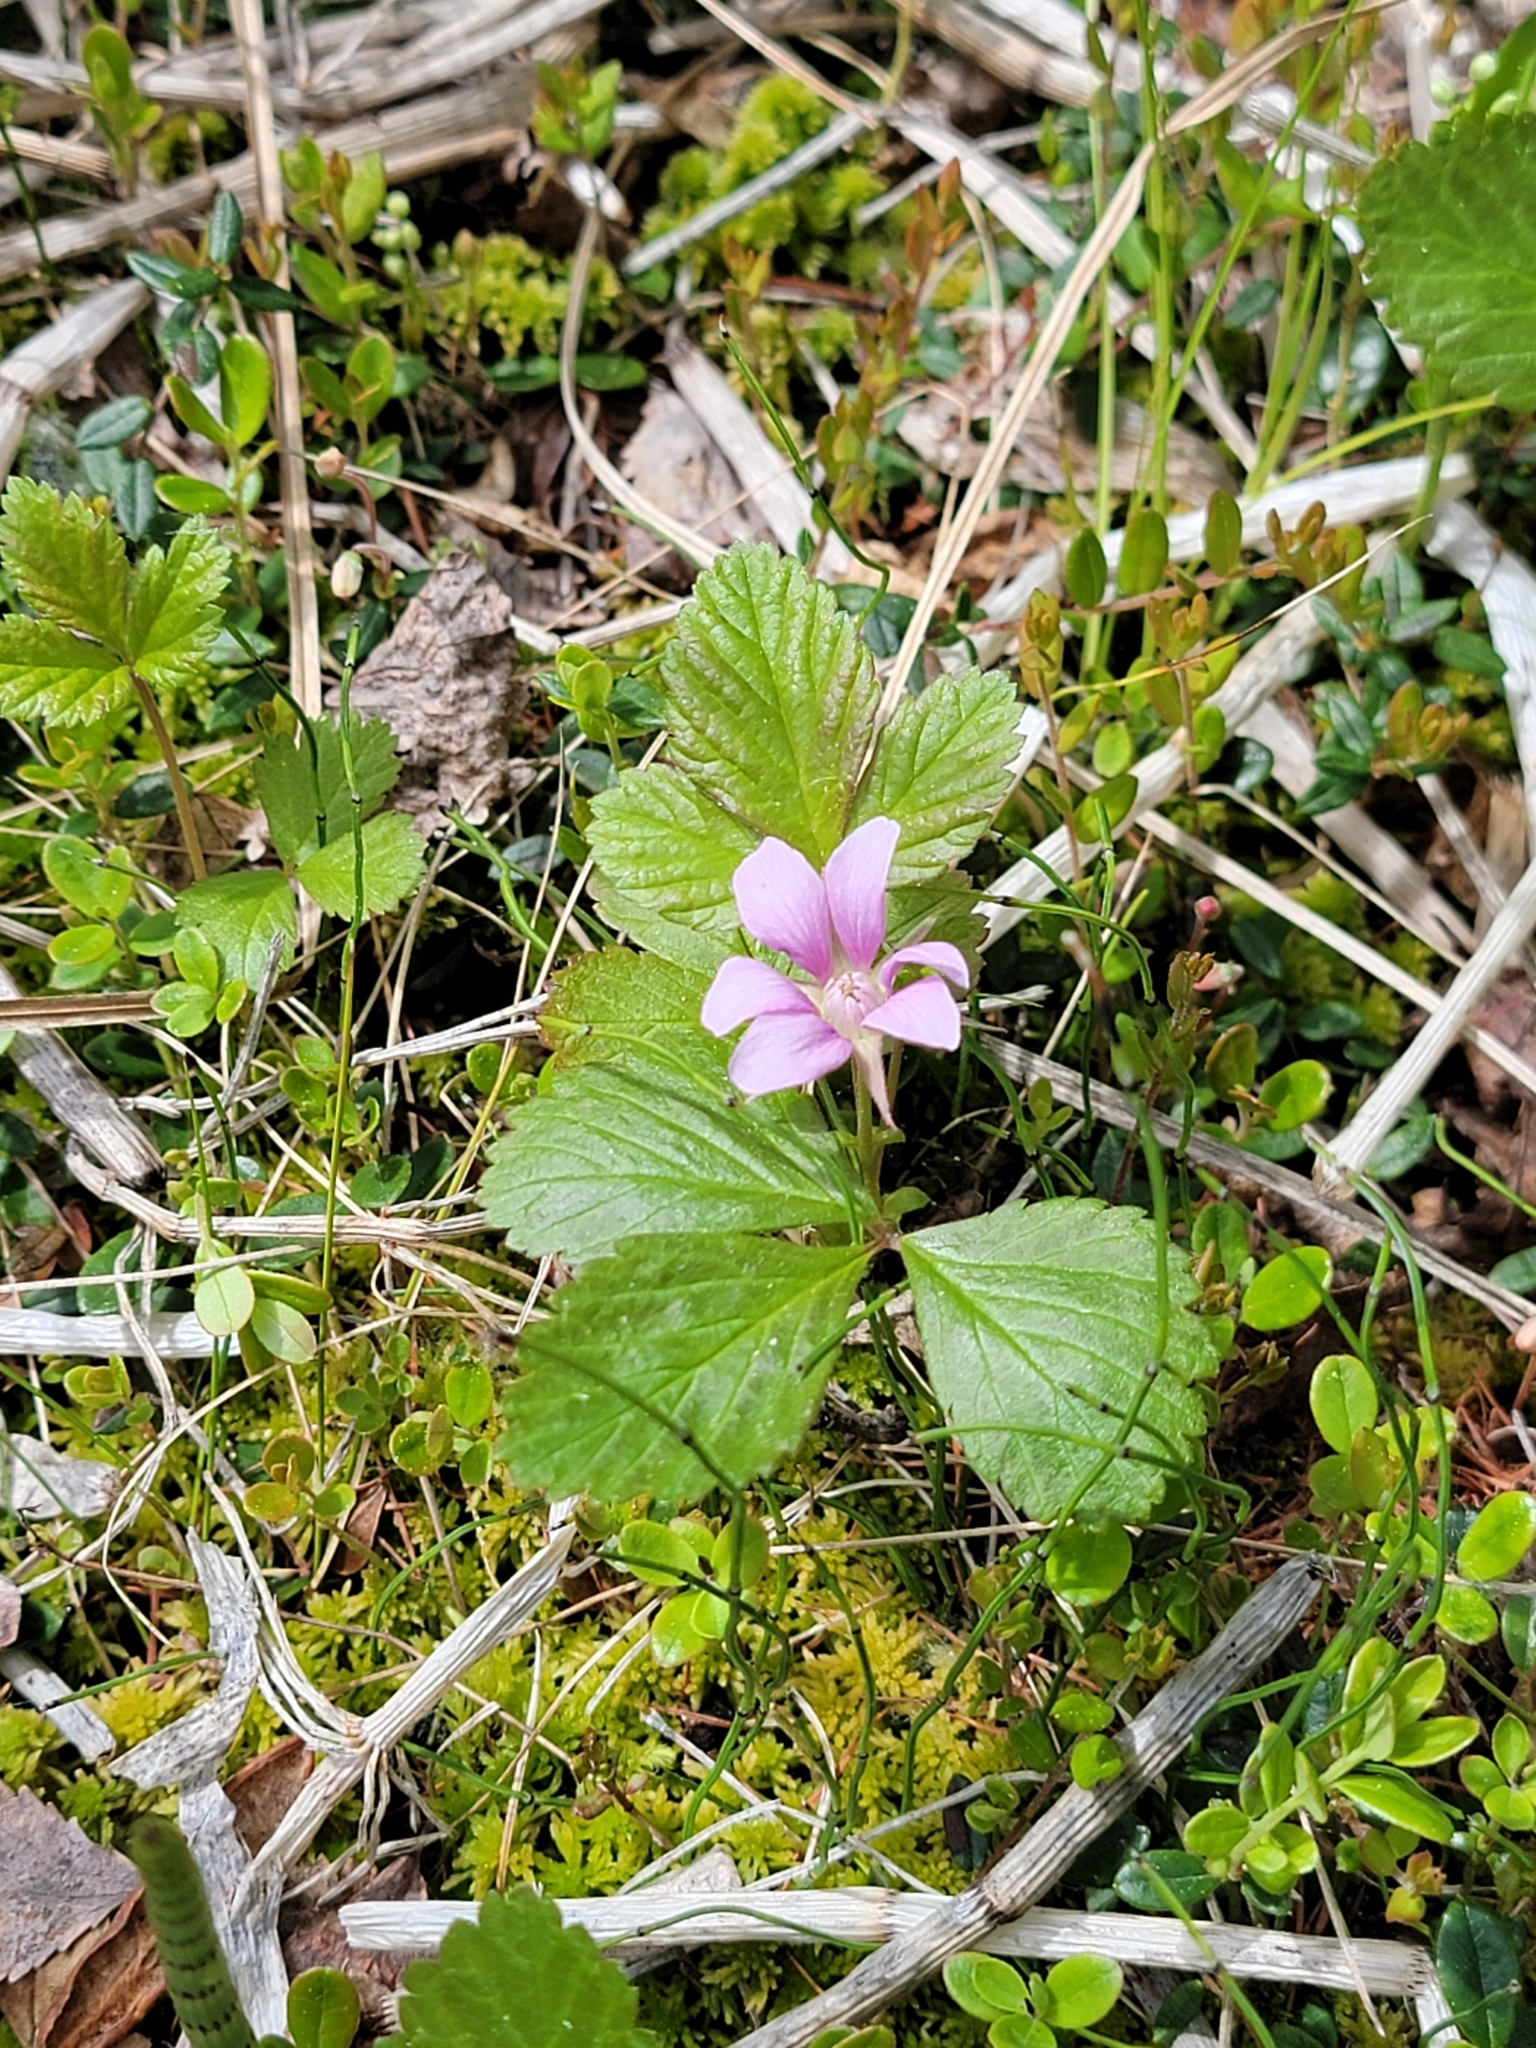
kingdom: Plantae
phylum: Tracheophyta
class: Magnoliopsida
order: Rosales
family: Rosaceae
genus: Rubus
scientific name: Rubus arcticus
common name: Arctic bramble
